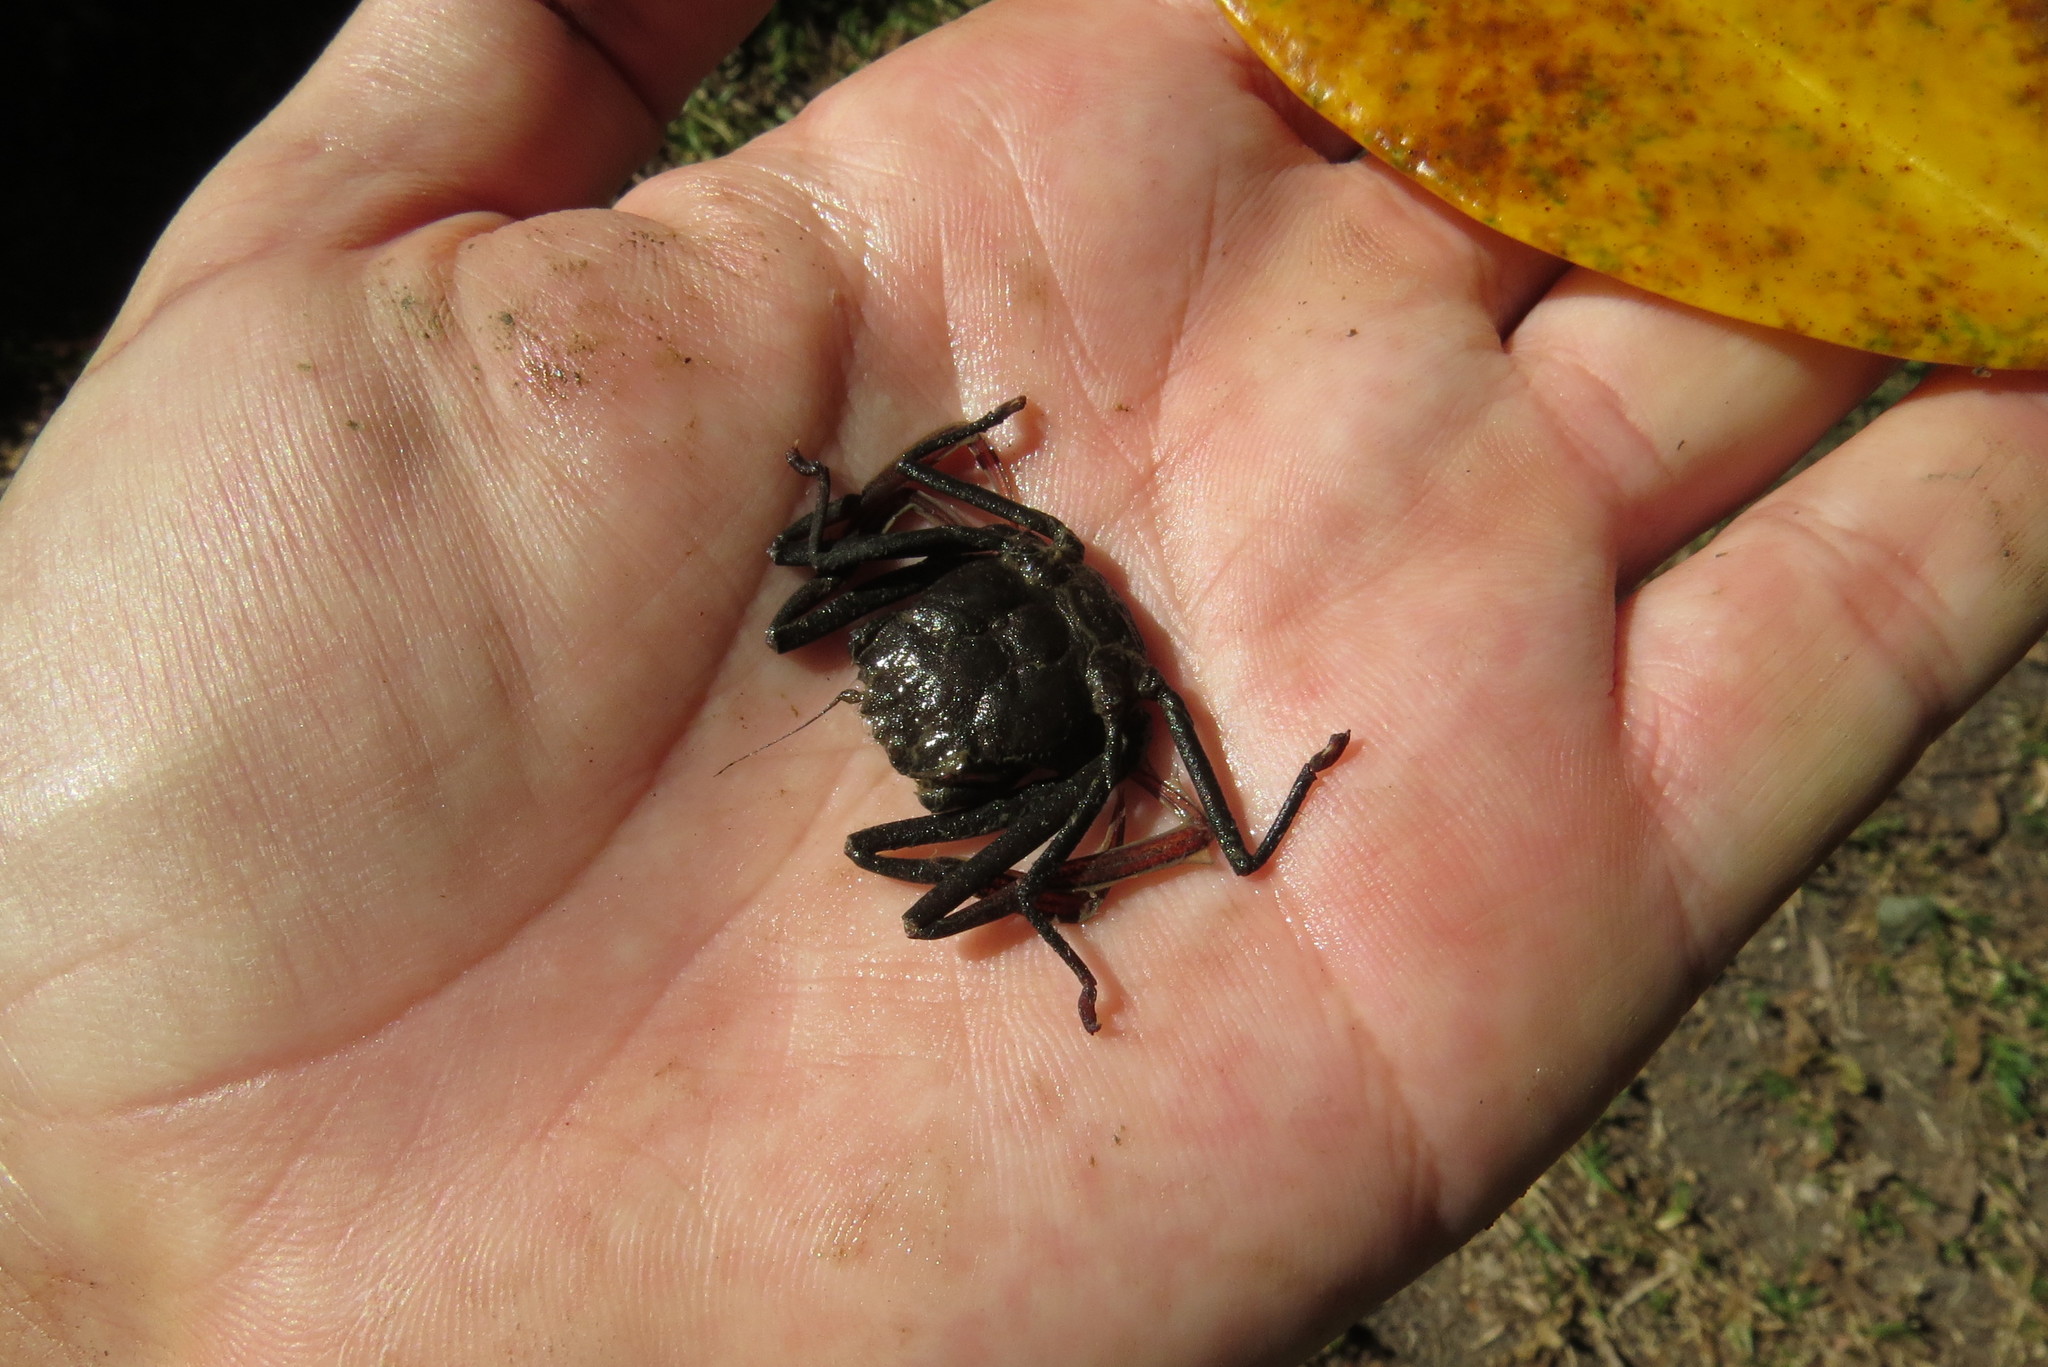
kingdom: Animalia
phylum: Arthropoda
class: Malacostraca
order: Decapoda
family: Dorippidae
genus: Neodorippe
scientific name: Neodorippe callida
